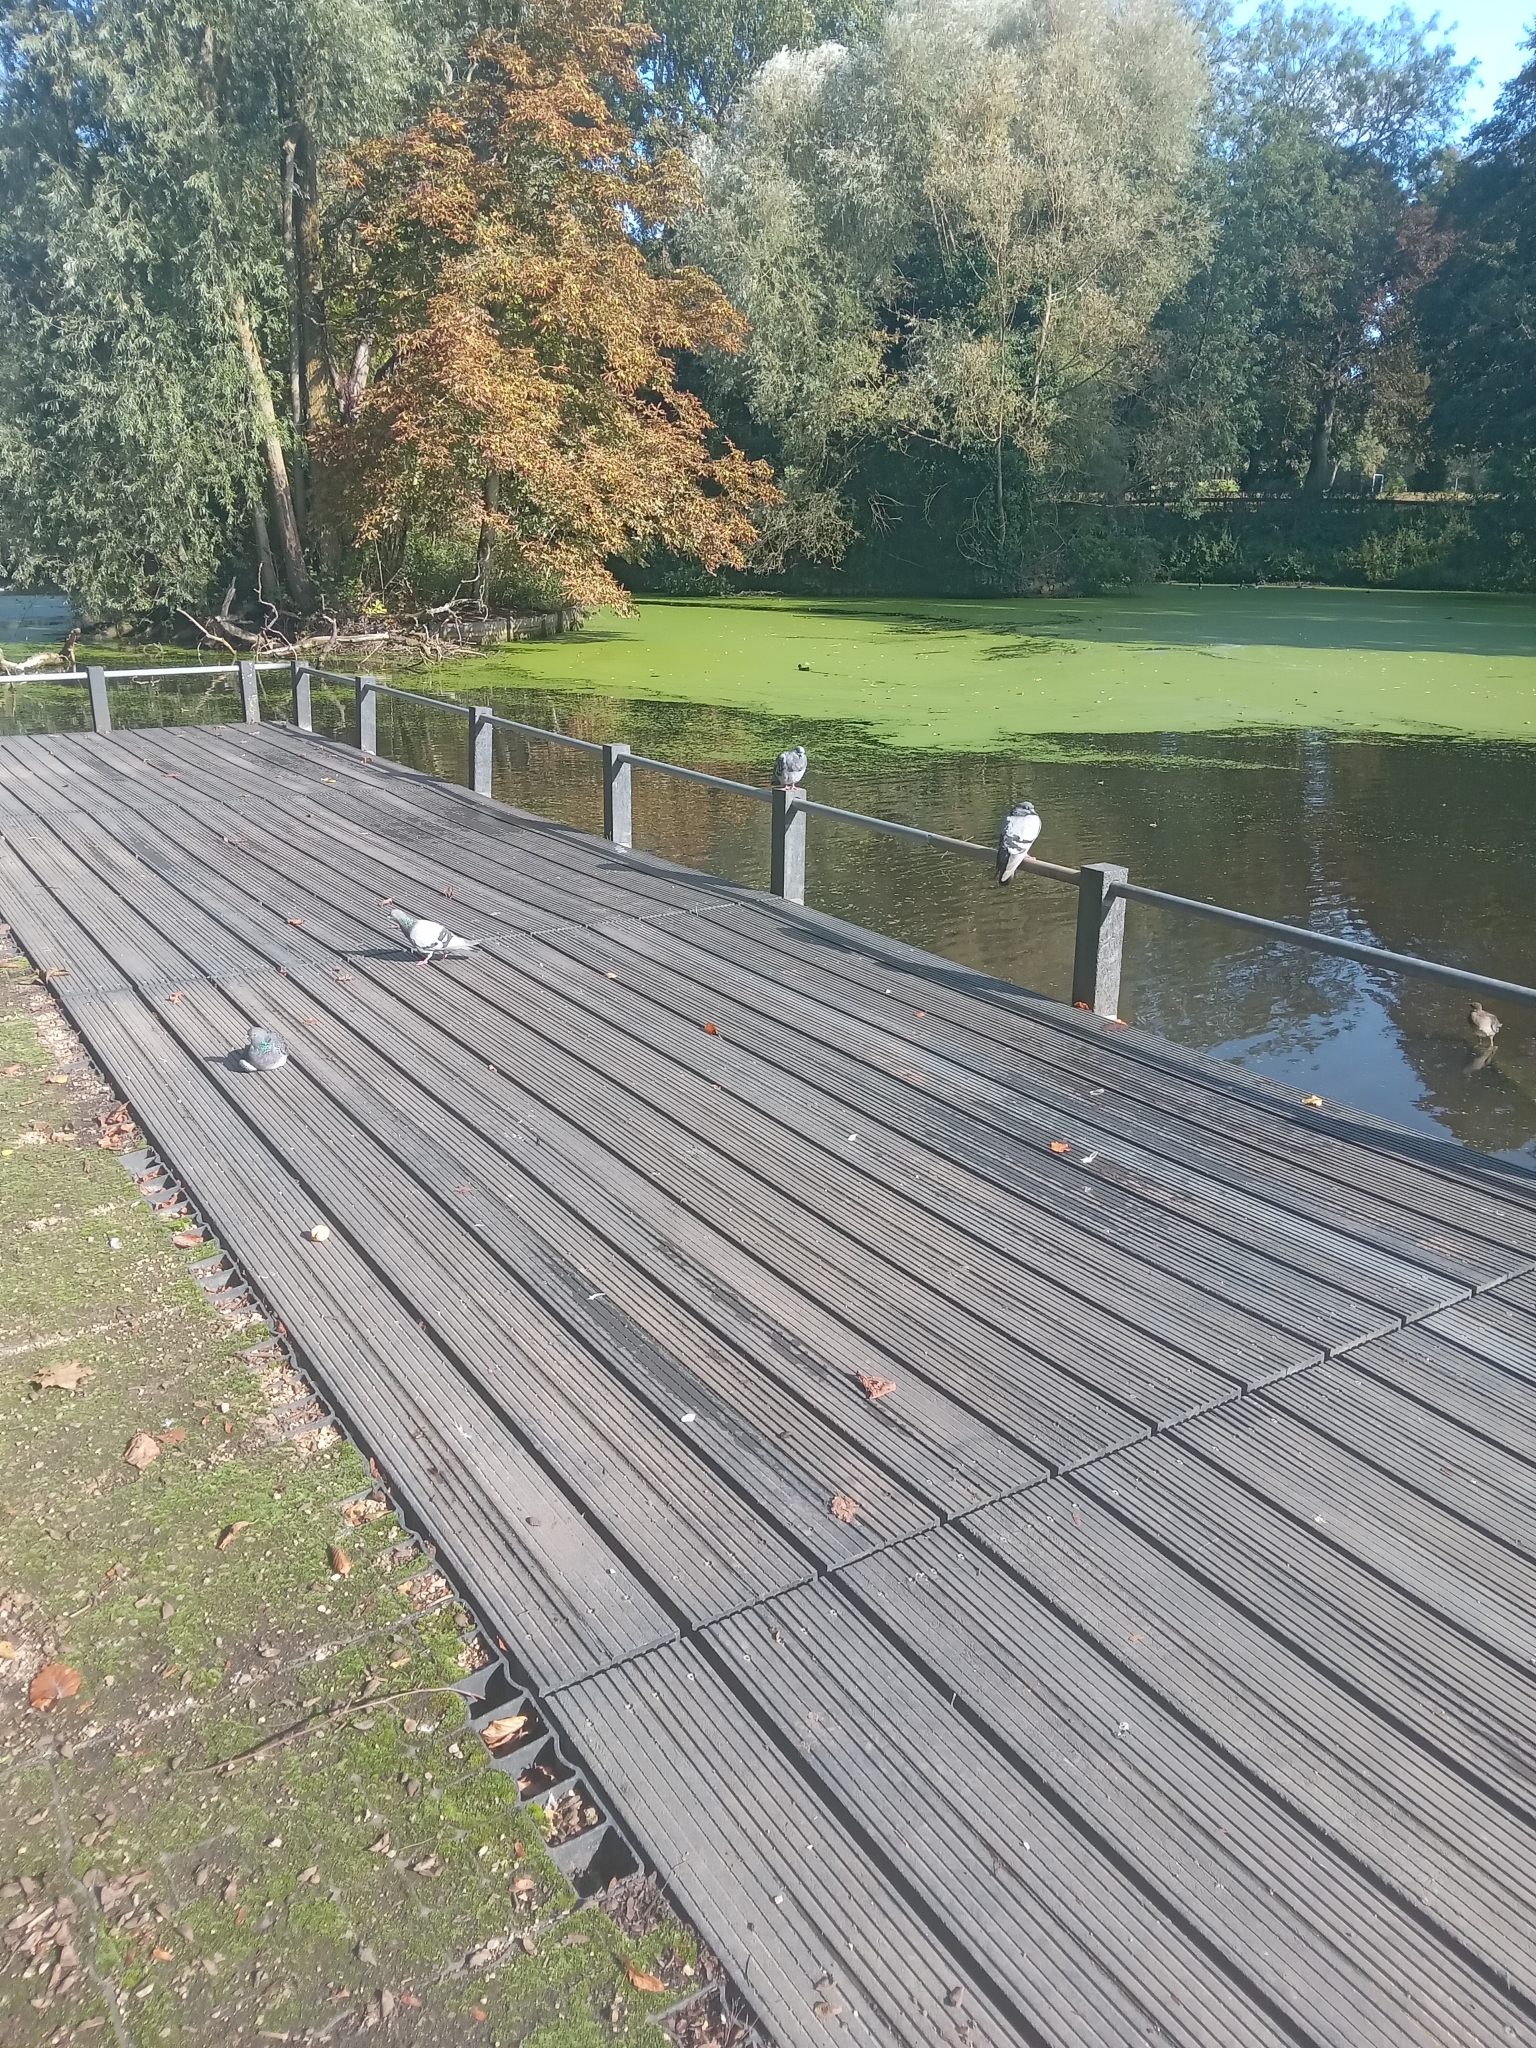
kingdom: Animalia
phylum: Chordata
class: Aves
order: Columbiformes
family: Columbidae
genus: Columba
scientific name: Columba livia
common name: Rock pigeon
